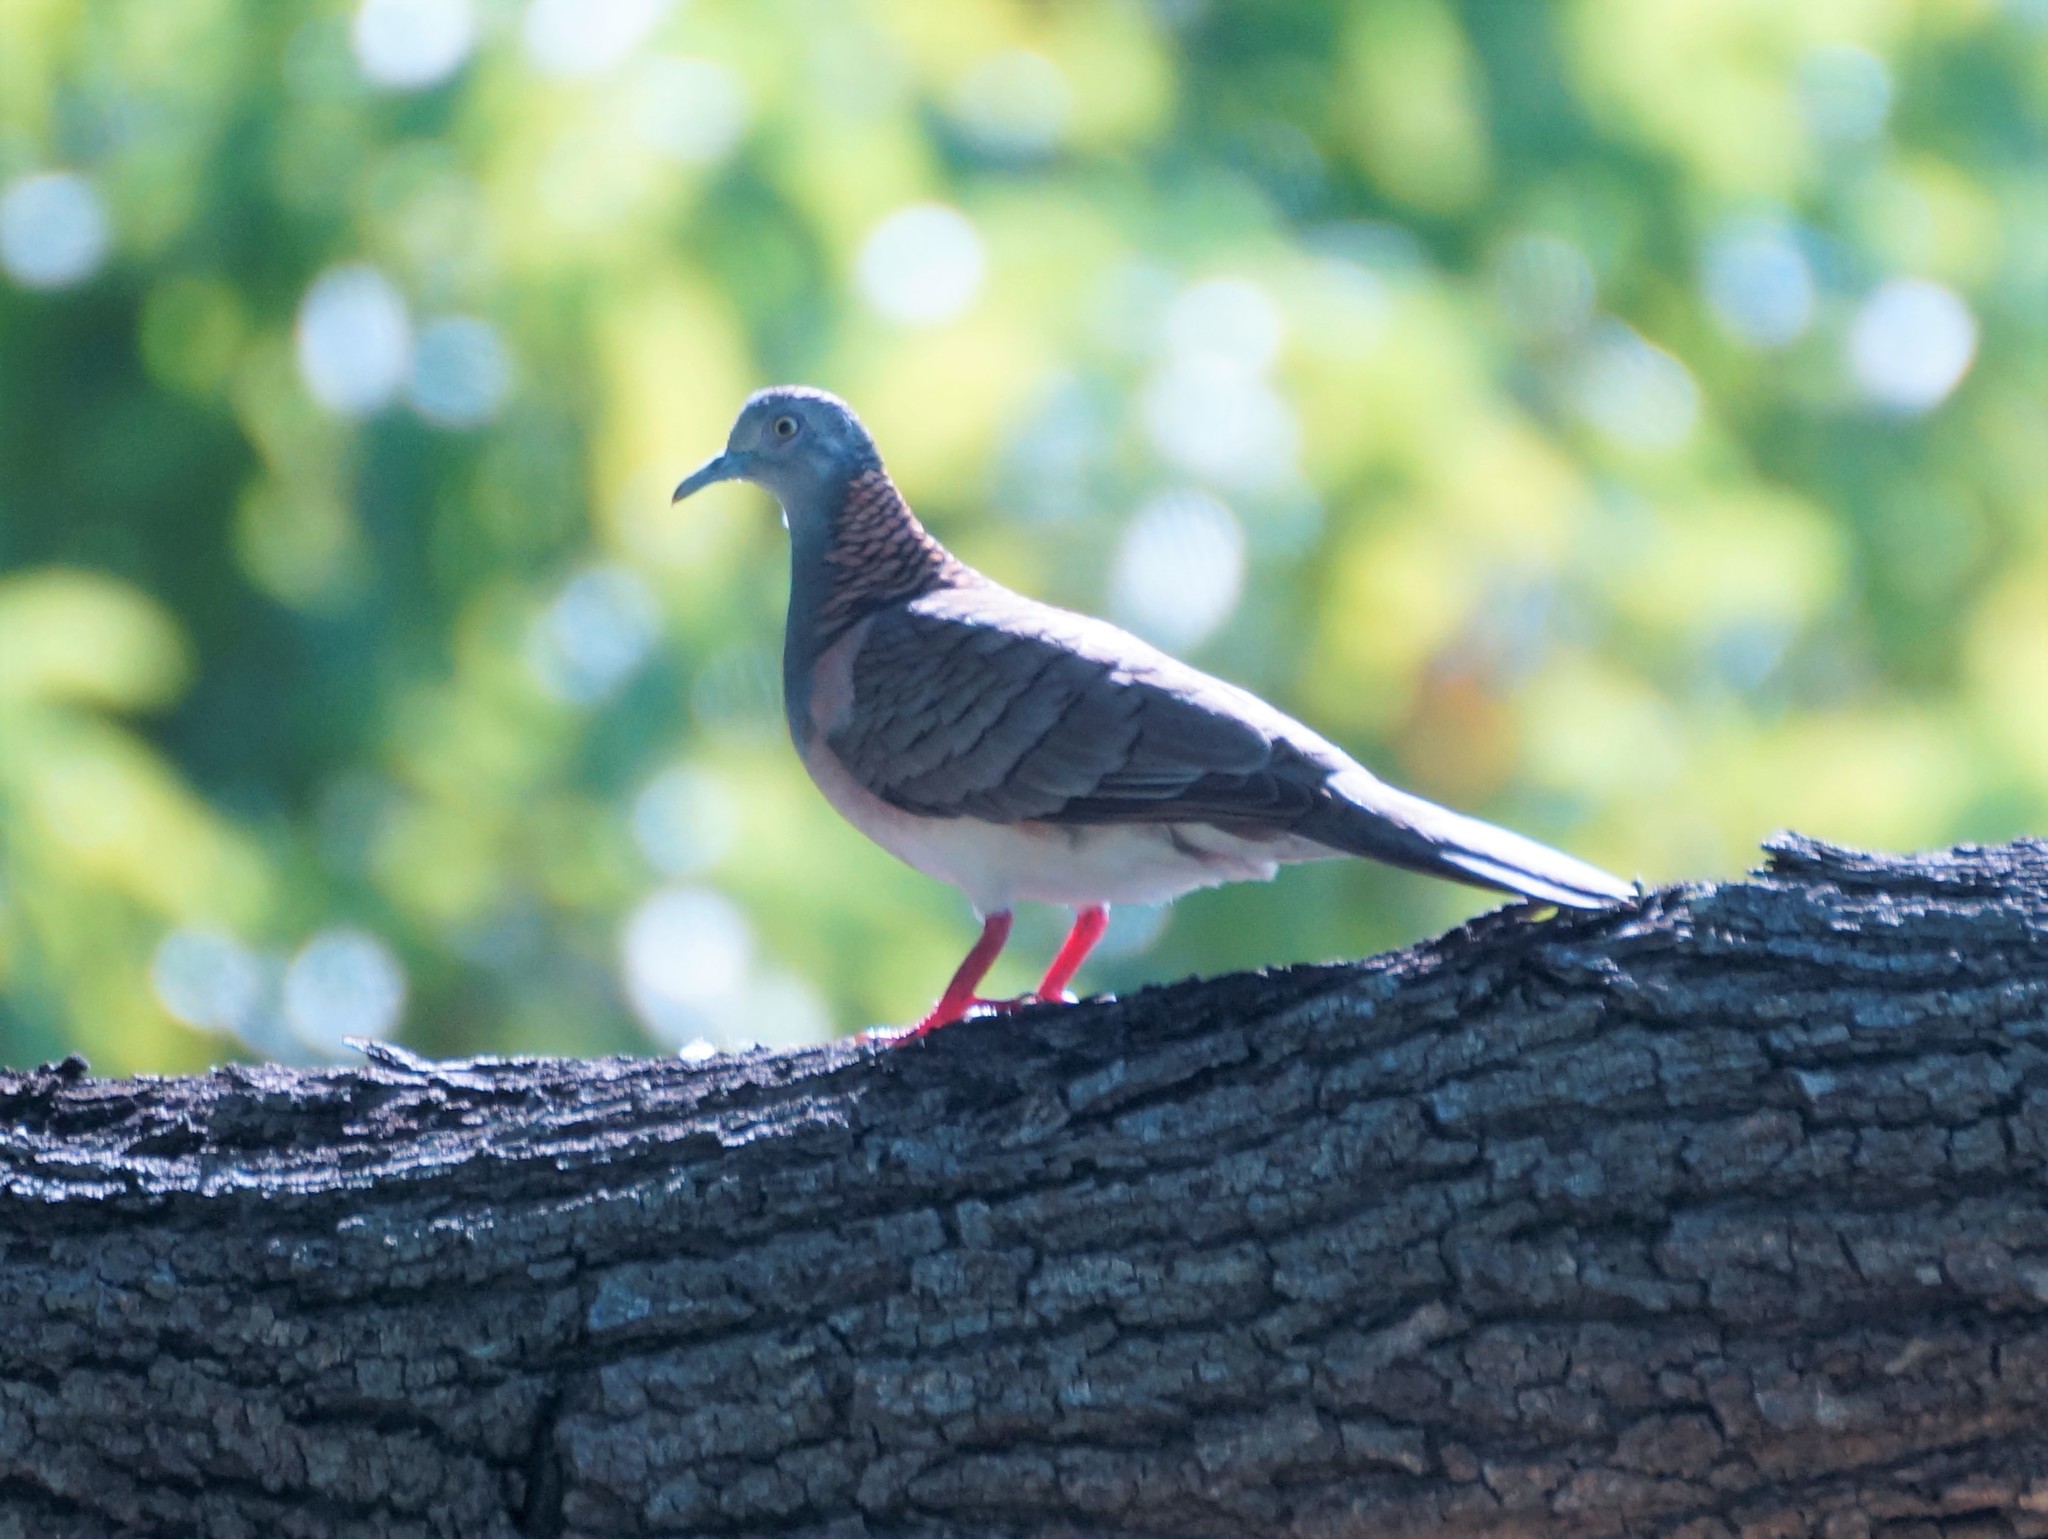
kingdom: Animalia
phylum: Chordata
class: Aves
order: Columbiformes
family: Columbidae
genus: Geopelia
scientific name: Geopelia humeralis
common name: Bar-shouldered dove
